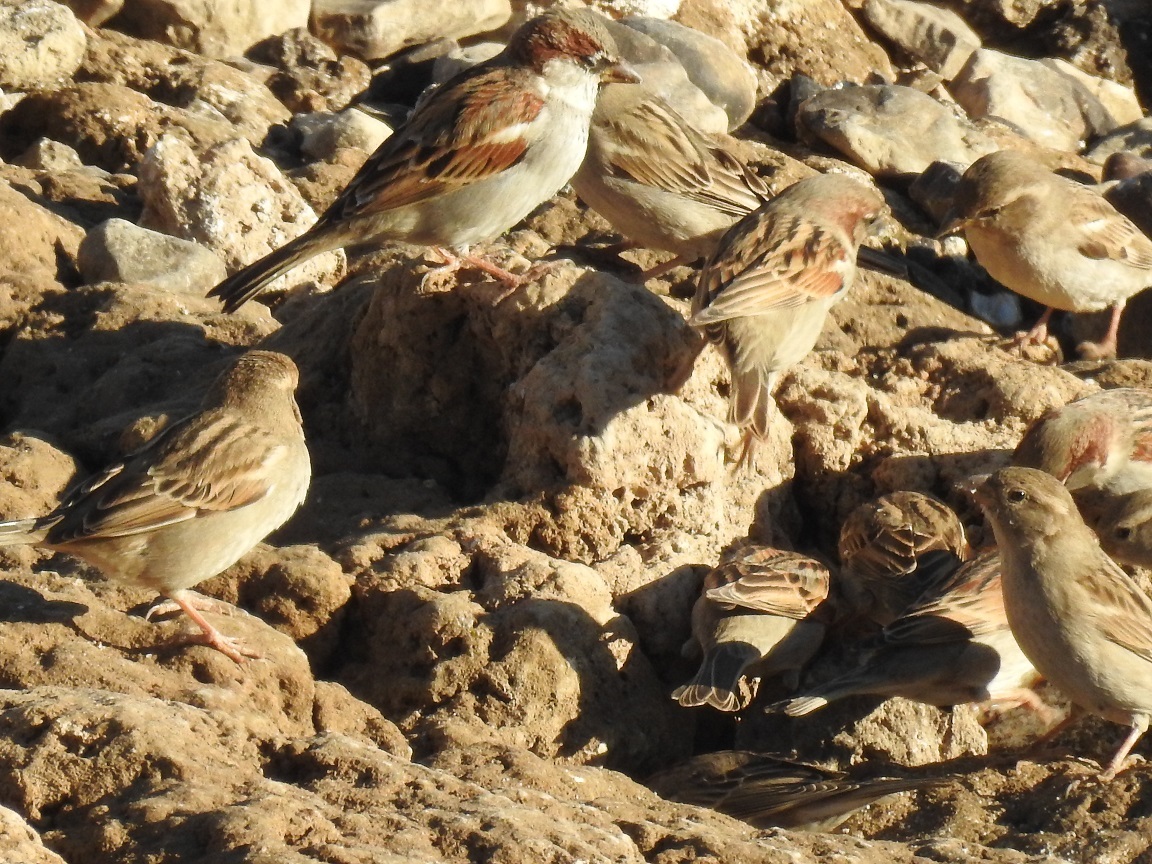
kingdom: Animalia
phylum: Chordata
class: Aves
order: Passeriformes
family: Passeridae
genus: Passer
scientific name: Passer domesticus
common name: House sparrow
